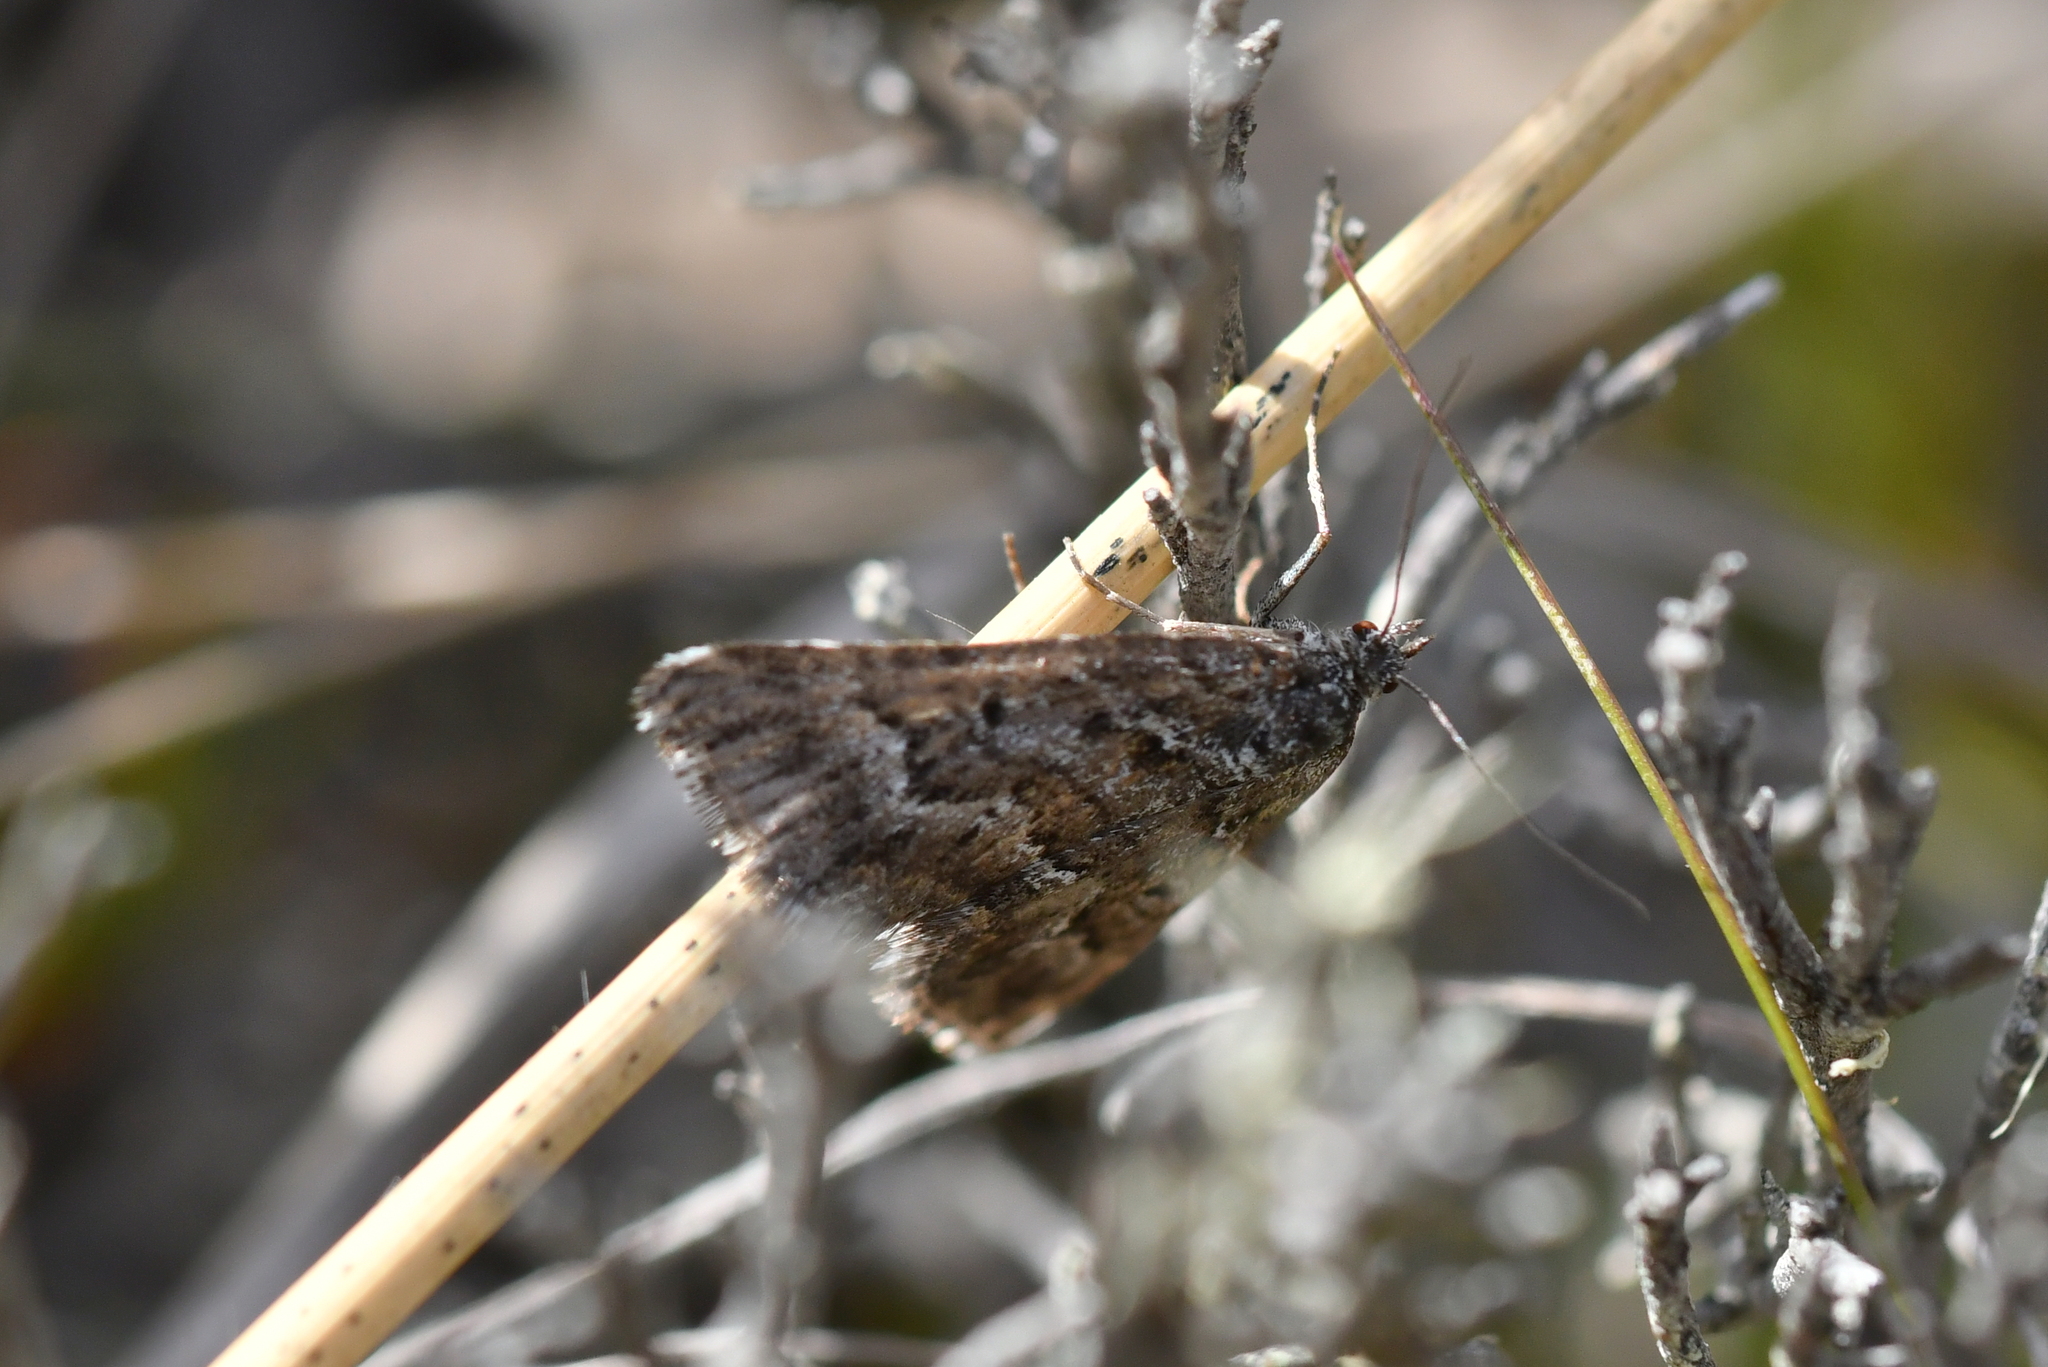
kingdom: Animalia
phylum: Arthropoda
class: Insecta
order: Lepidoptera
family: Geometridae
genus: Aponotoreas
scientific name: Aponotoreas anthracias
